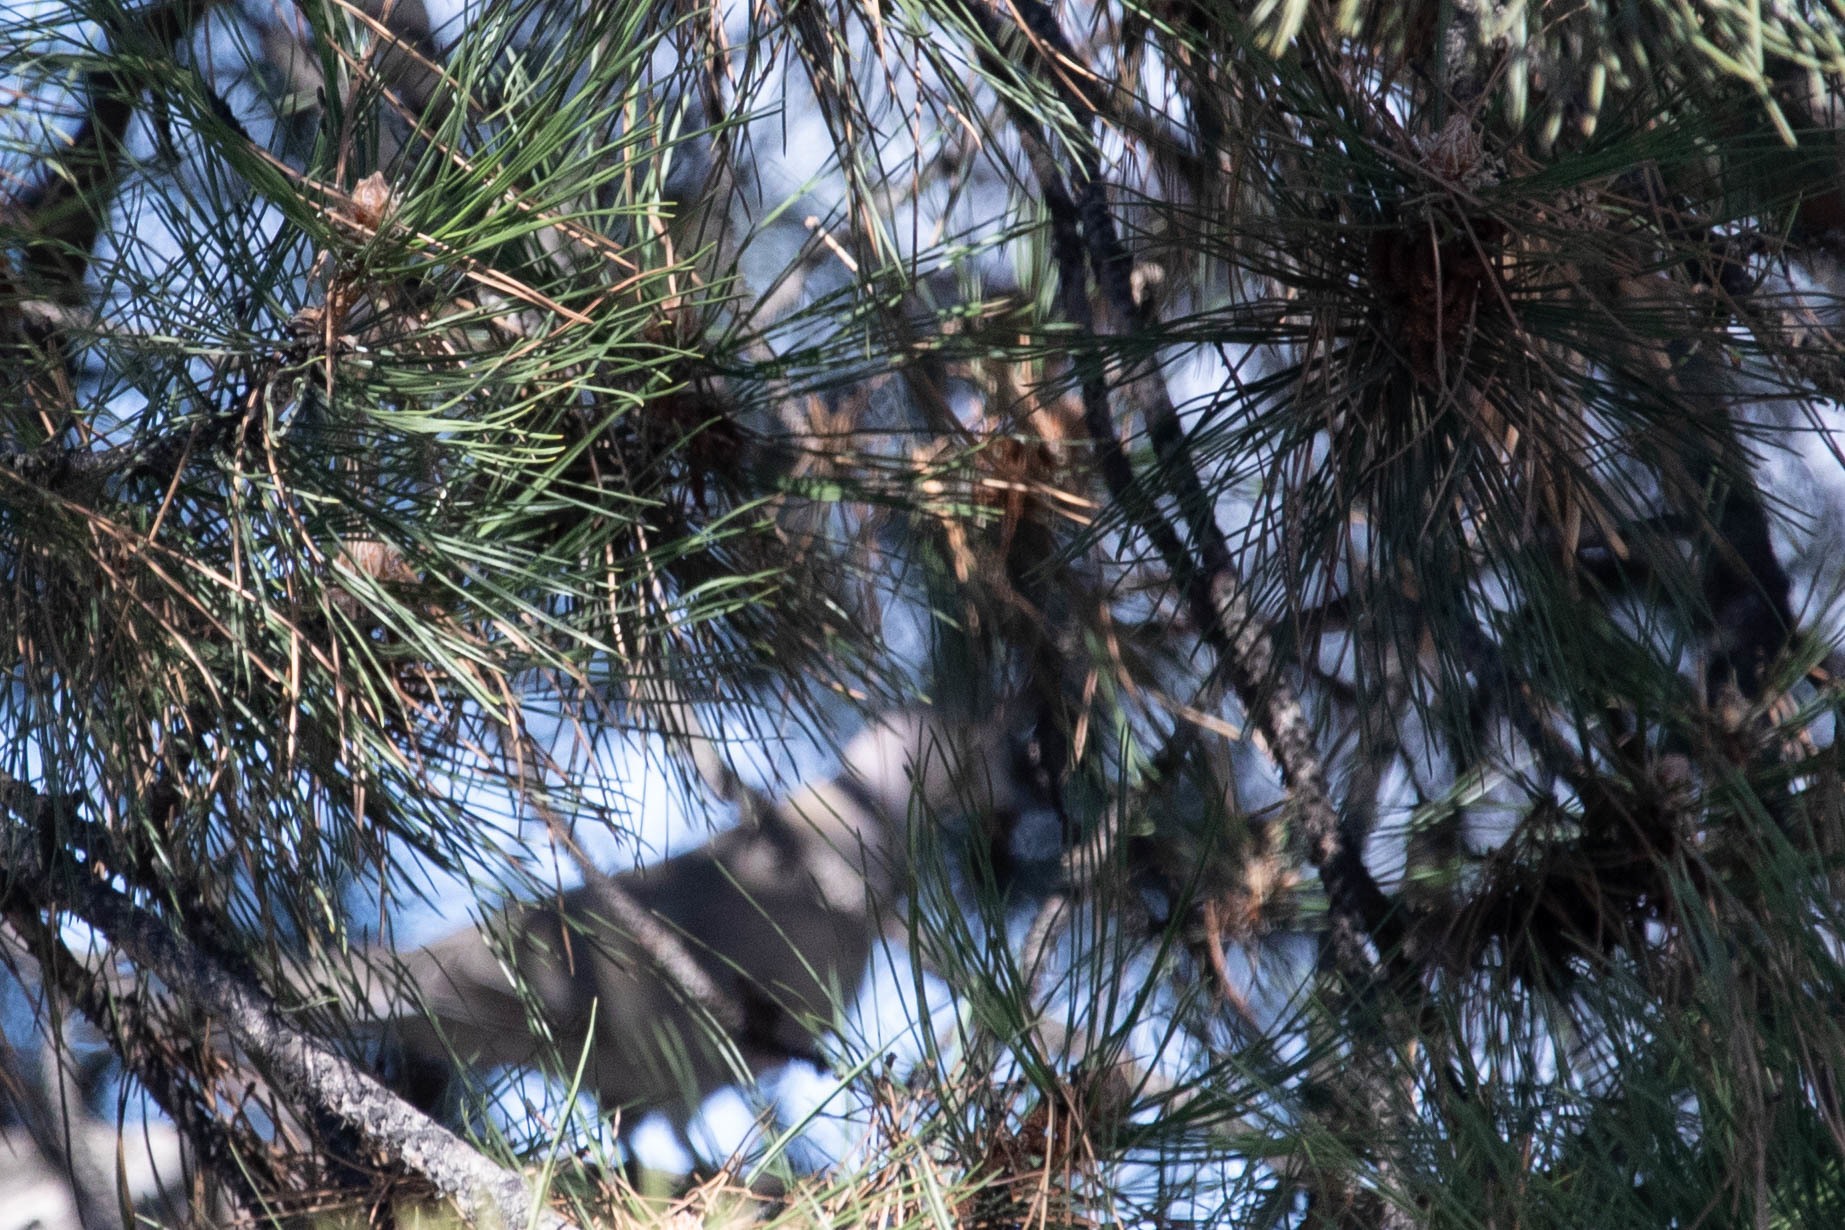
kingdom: Animalia
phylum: Chordata
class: Aves
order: Columbiformes
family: Columbidae
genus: Streptopelia
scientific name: Streptopelia decaocto
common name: Eurasian collared dove
